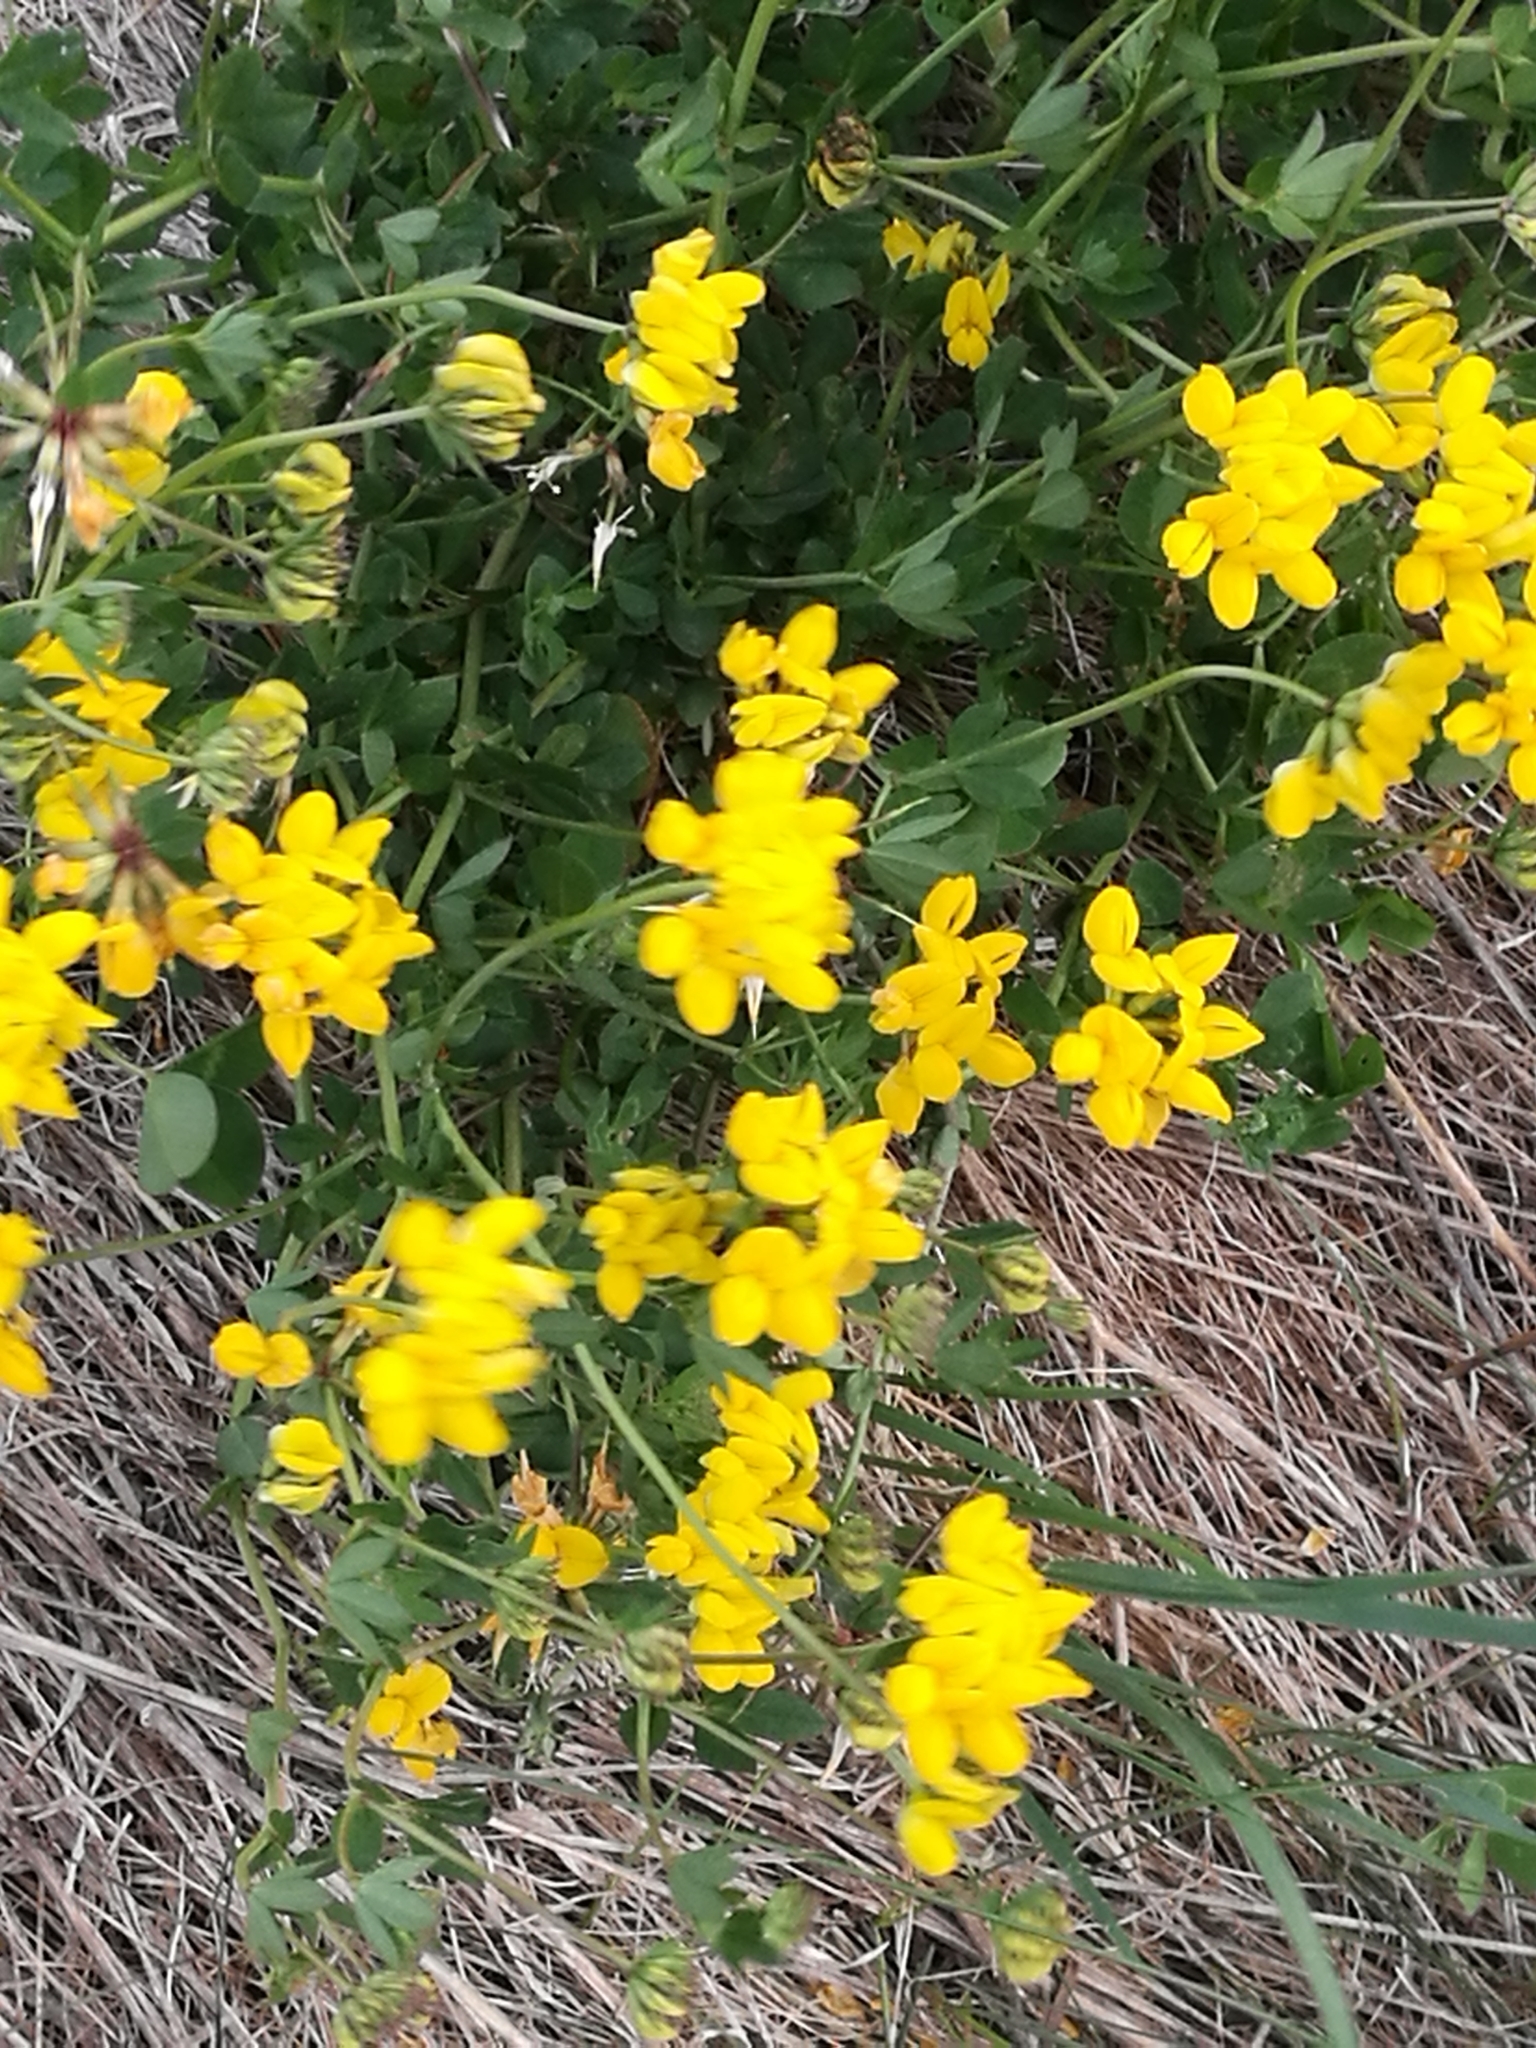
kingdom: Plantae
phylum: Tracheophyta
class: Magnoliopsida
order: Fabales
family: Fabaceae
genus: Lotus
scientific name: Lotus pedunculatus
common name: Greater birdsfoot-trefoil
